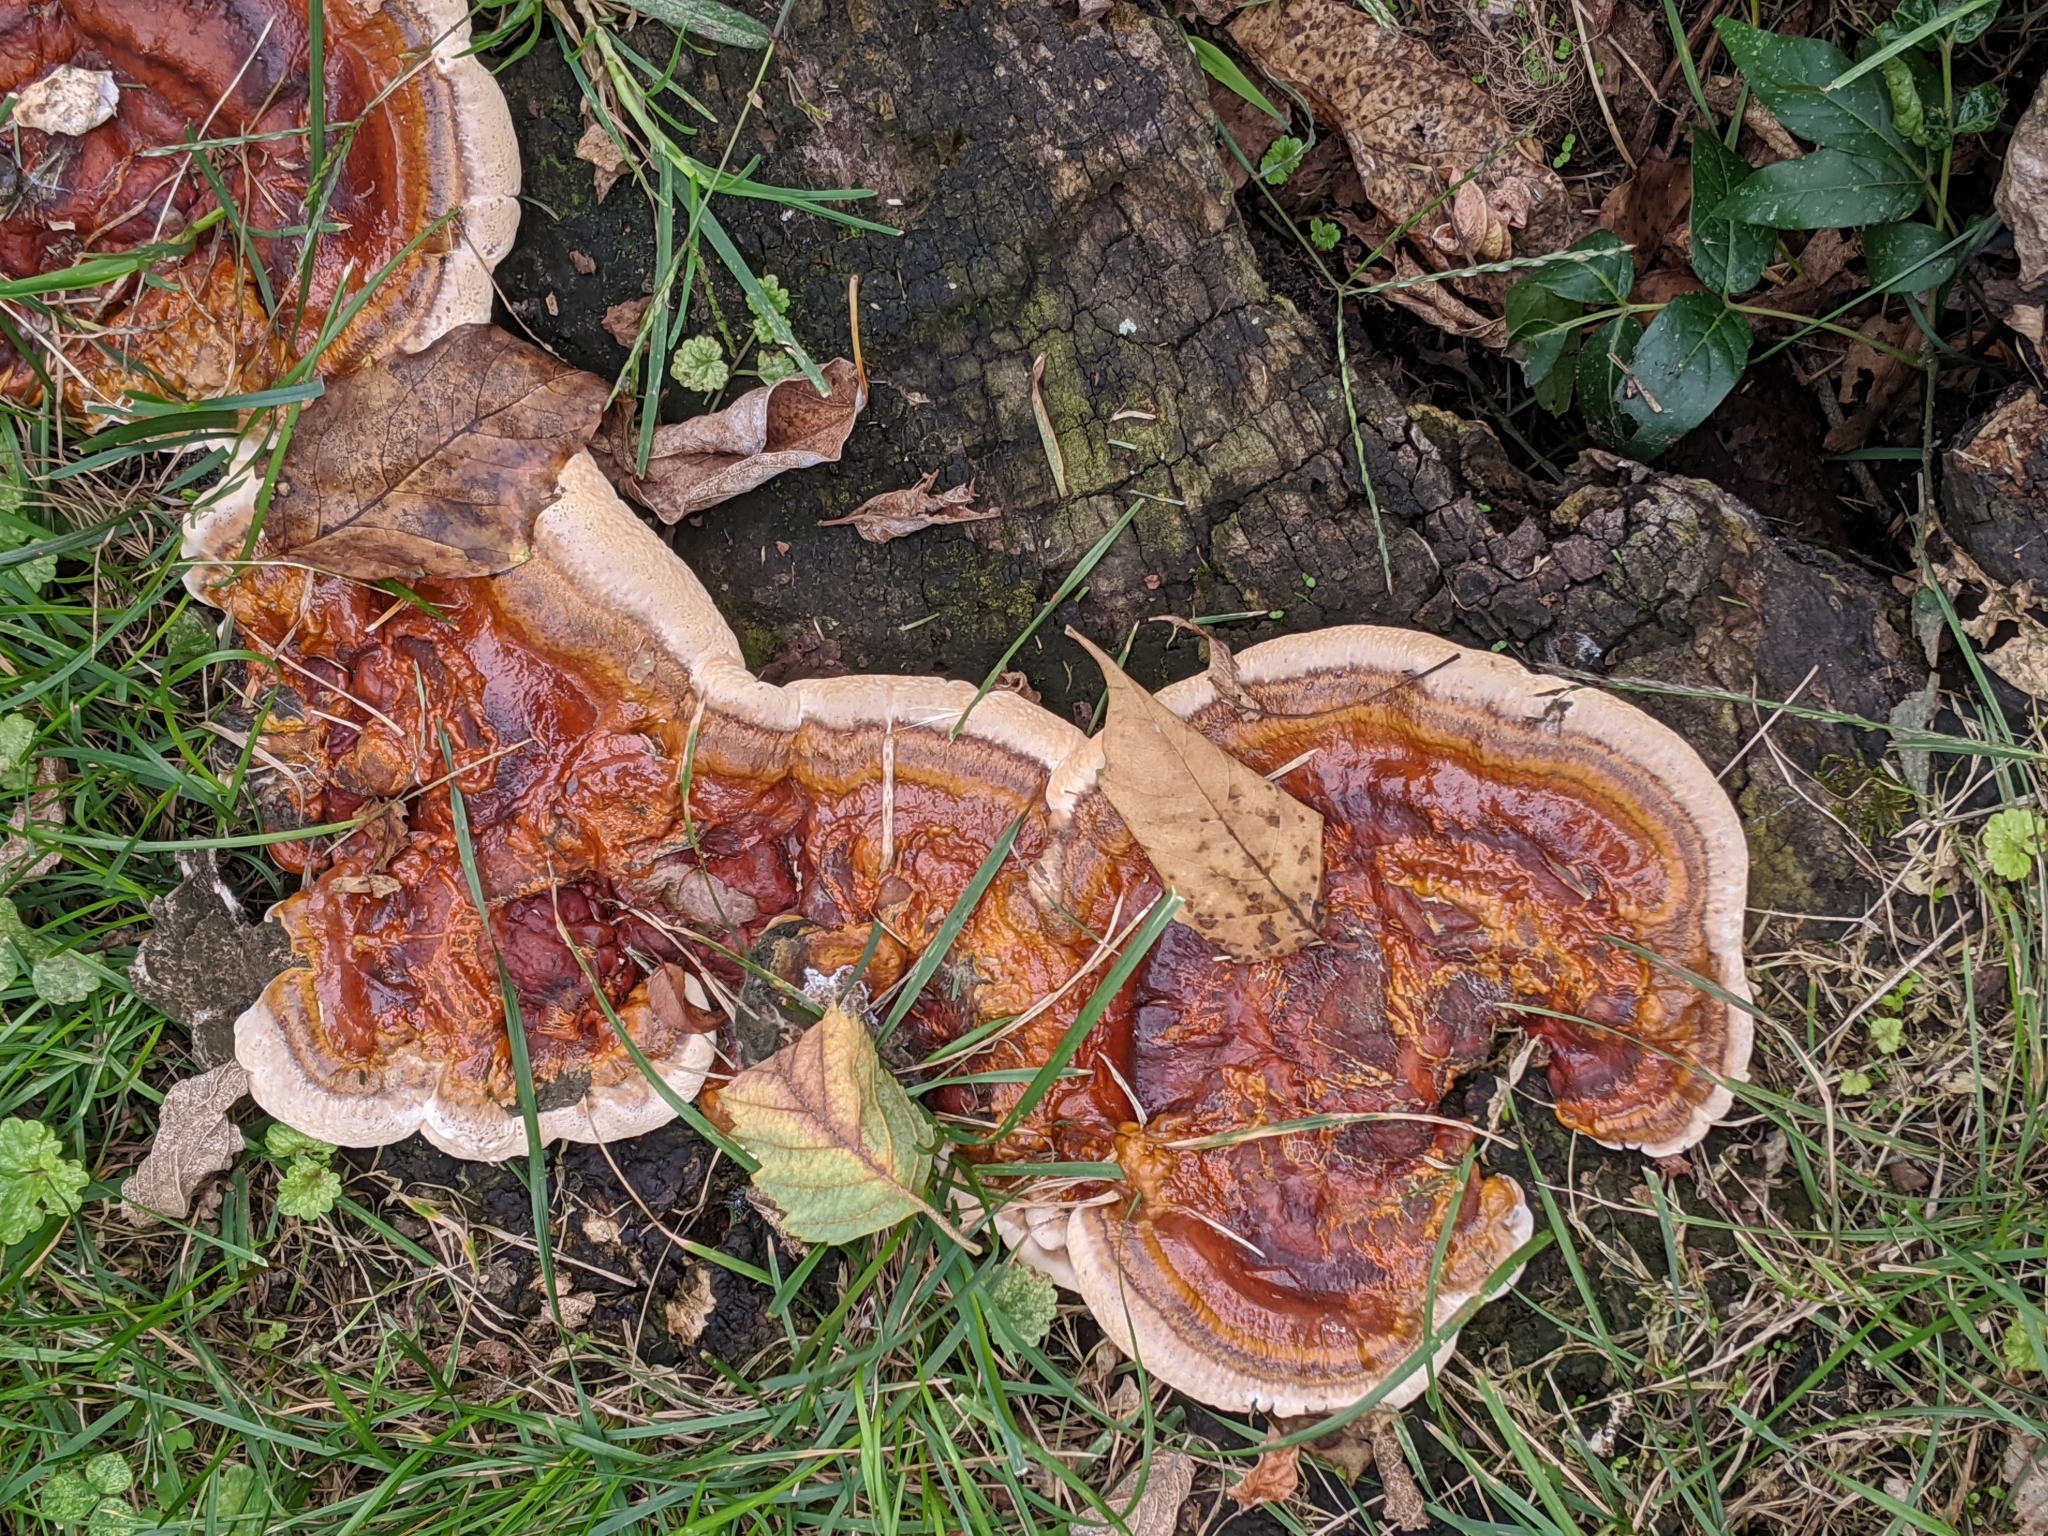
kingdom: Fungi
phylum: Basidiomycota
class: Agaricomycetes
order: Polyporales
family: Polyporaceae
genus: Ganoderma
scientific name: Ganoderma
